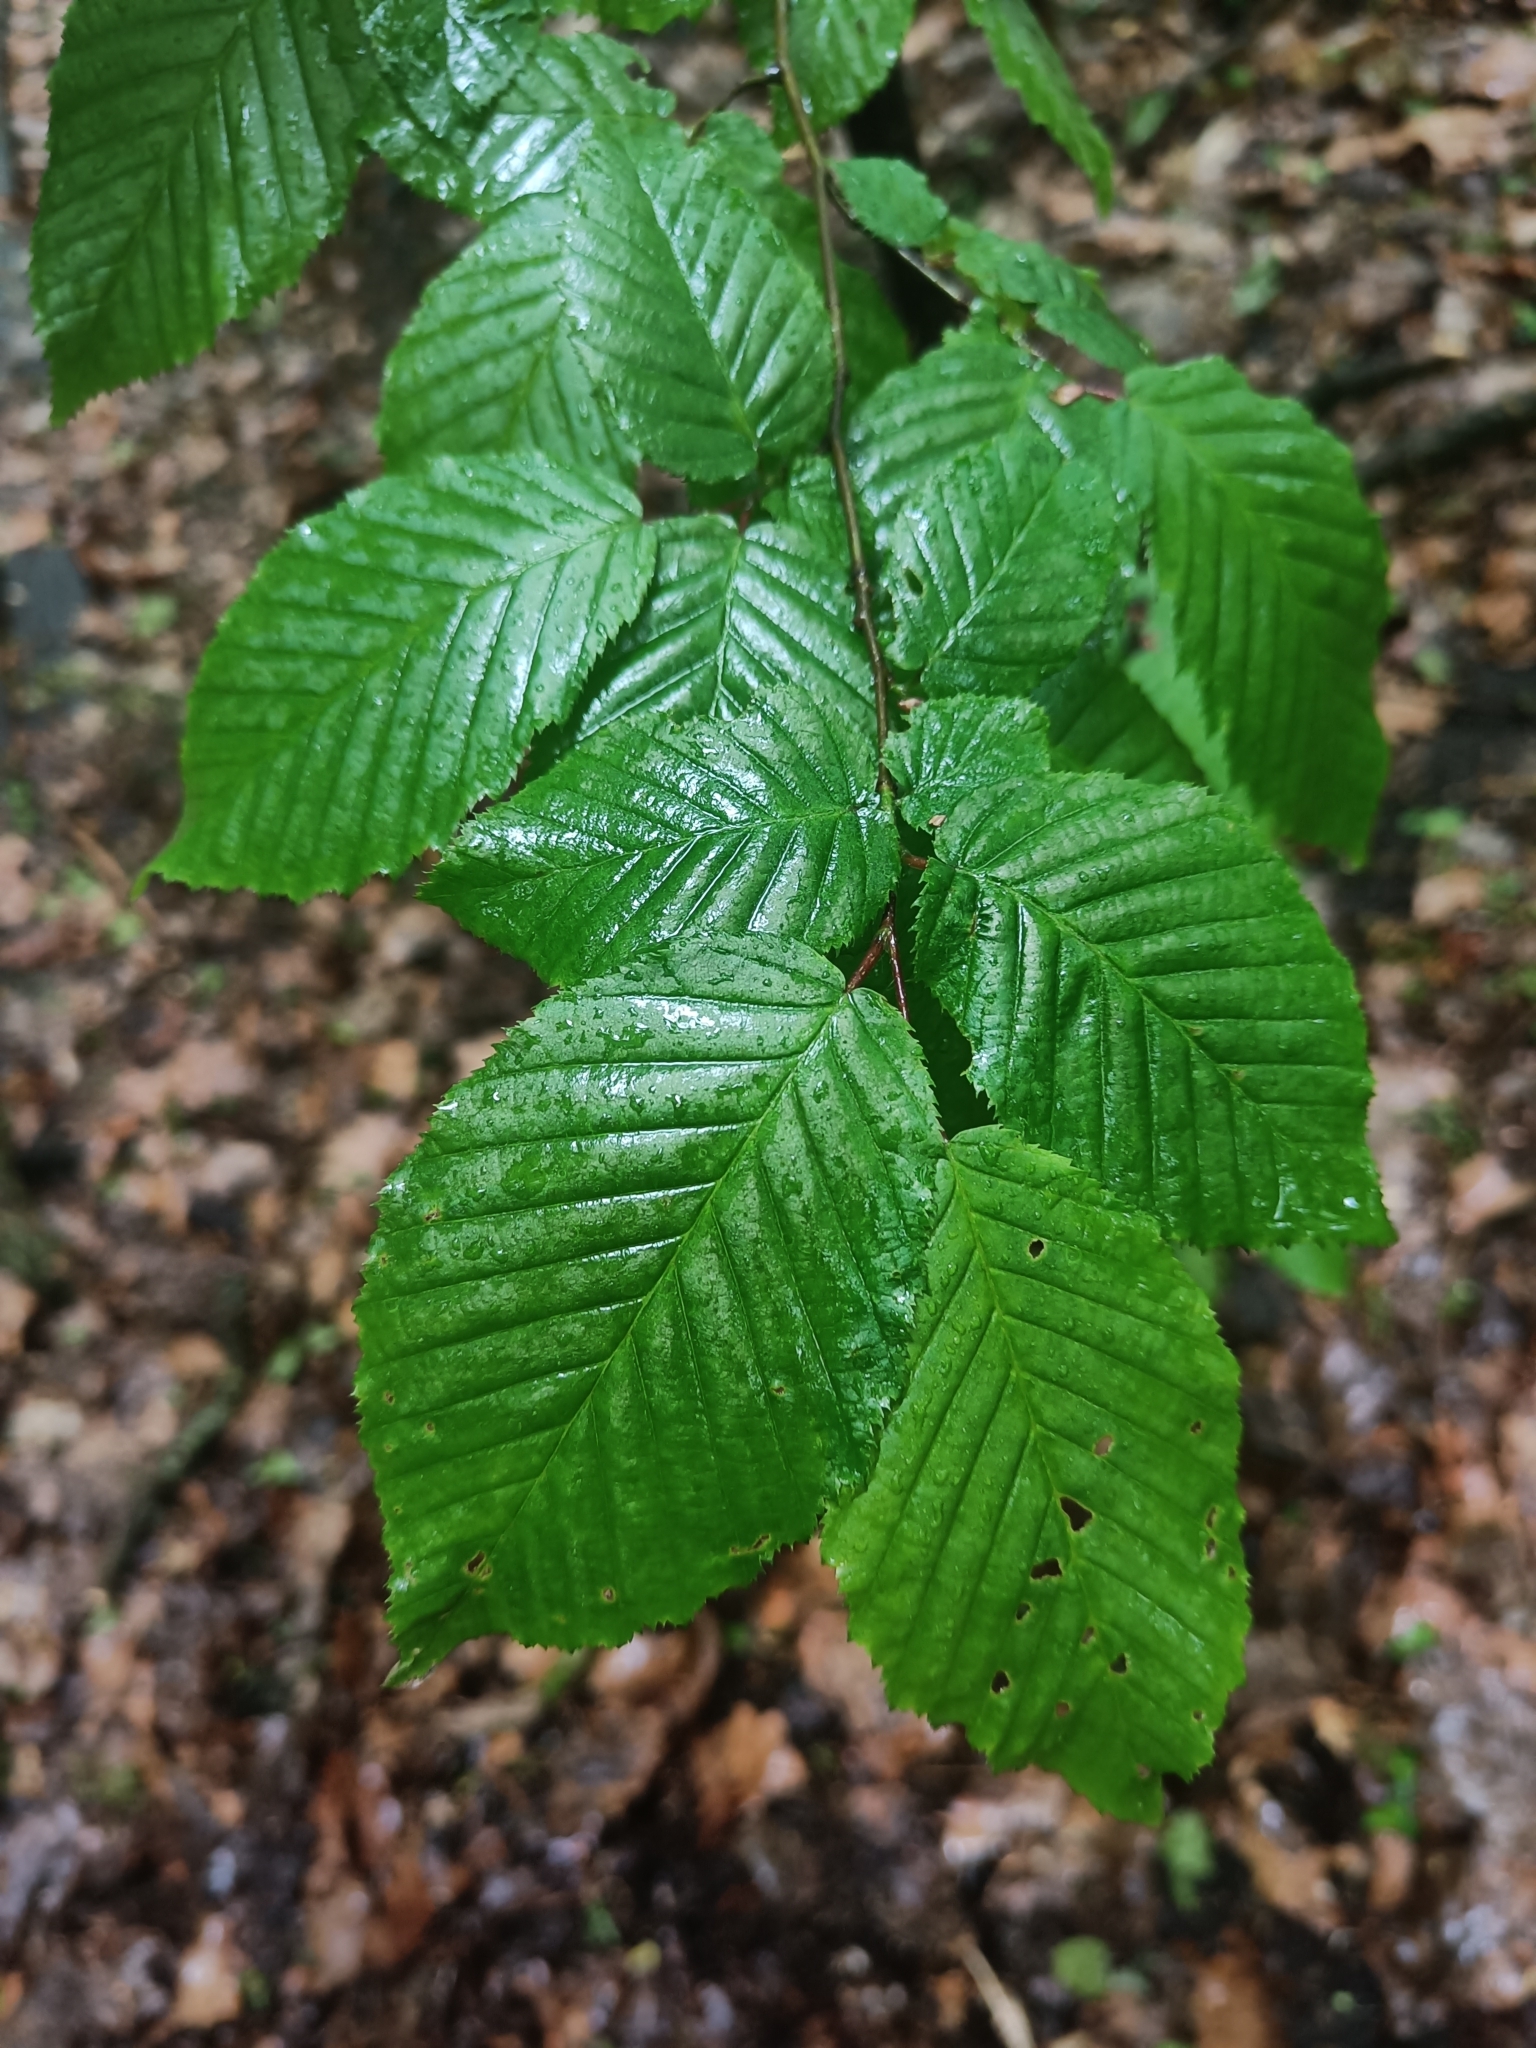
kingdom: Plantae
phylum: Tracheophyta
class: Magnoliopsida
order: Fagales
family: Betulaceae
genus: Carpinus
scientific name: Carpinus betulus
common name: Hornbeam
